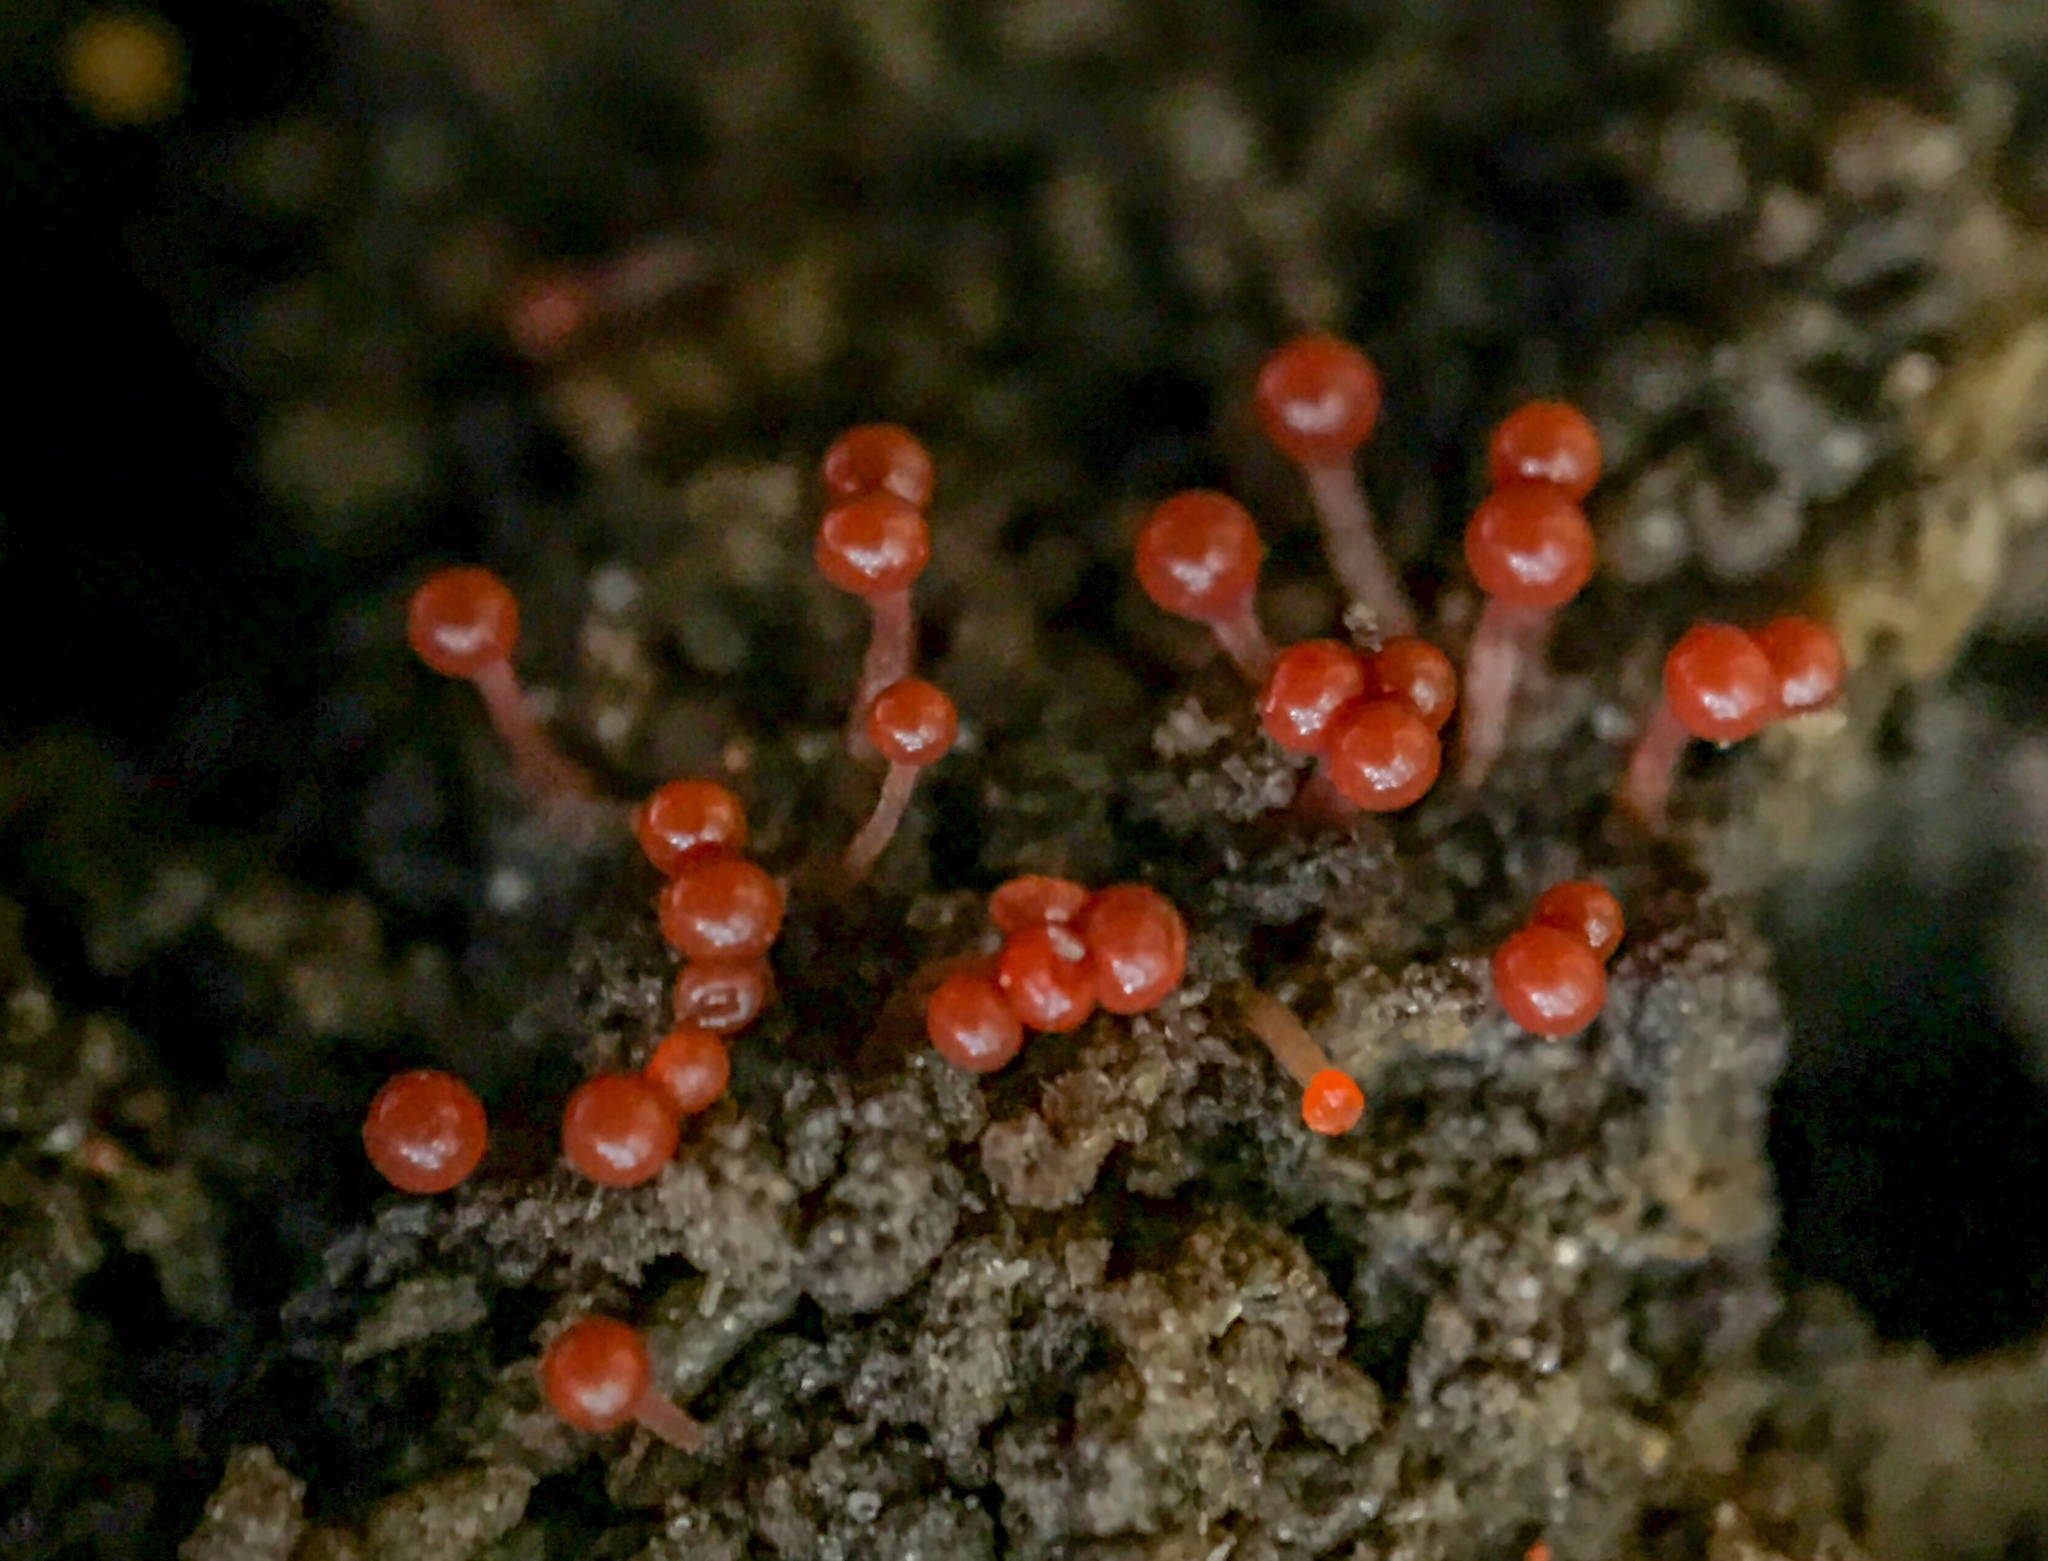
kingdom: Protozoa
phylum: Mycetozoa
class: Myxomycetes
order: Trichiales
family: Arcyriaceae
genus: Hemitrichia
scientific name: Hemitrichia calyculata
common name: Push pin slime mold
